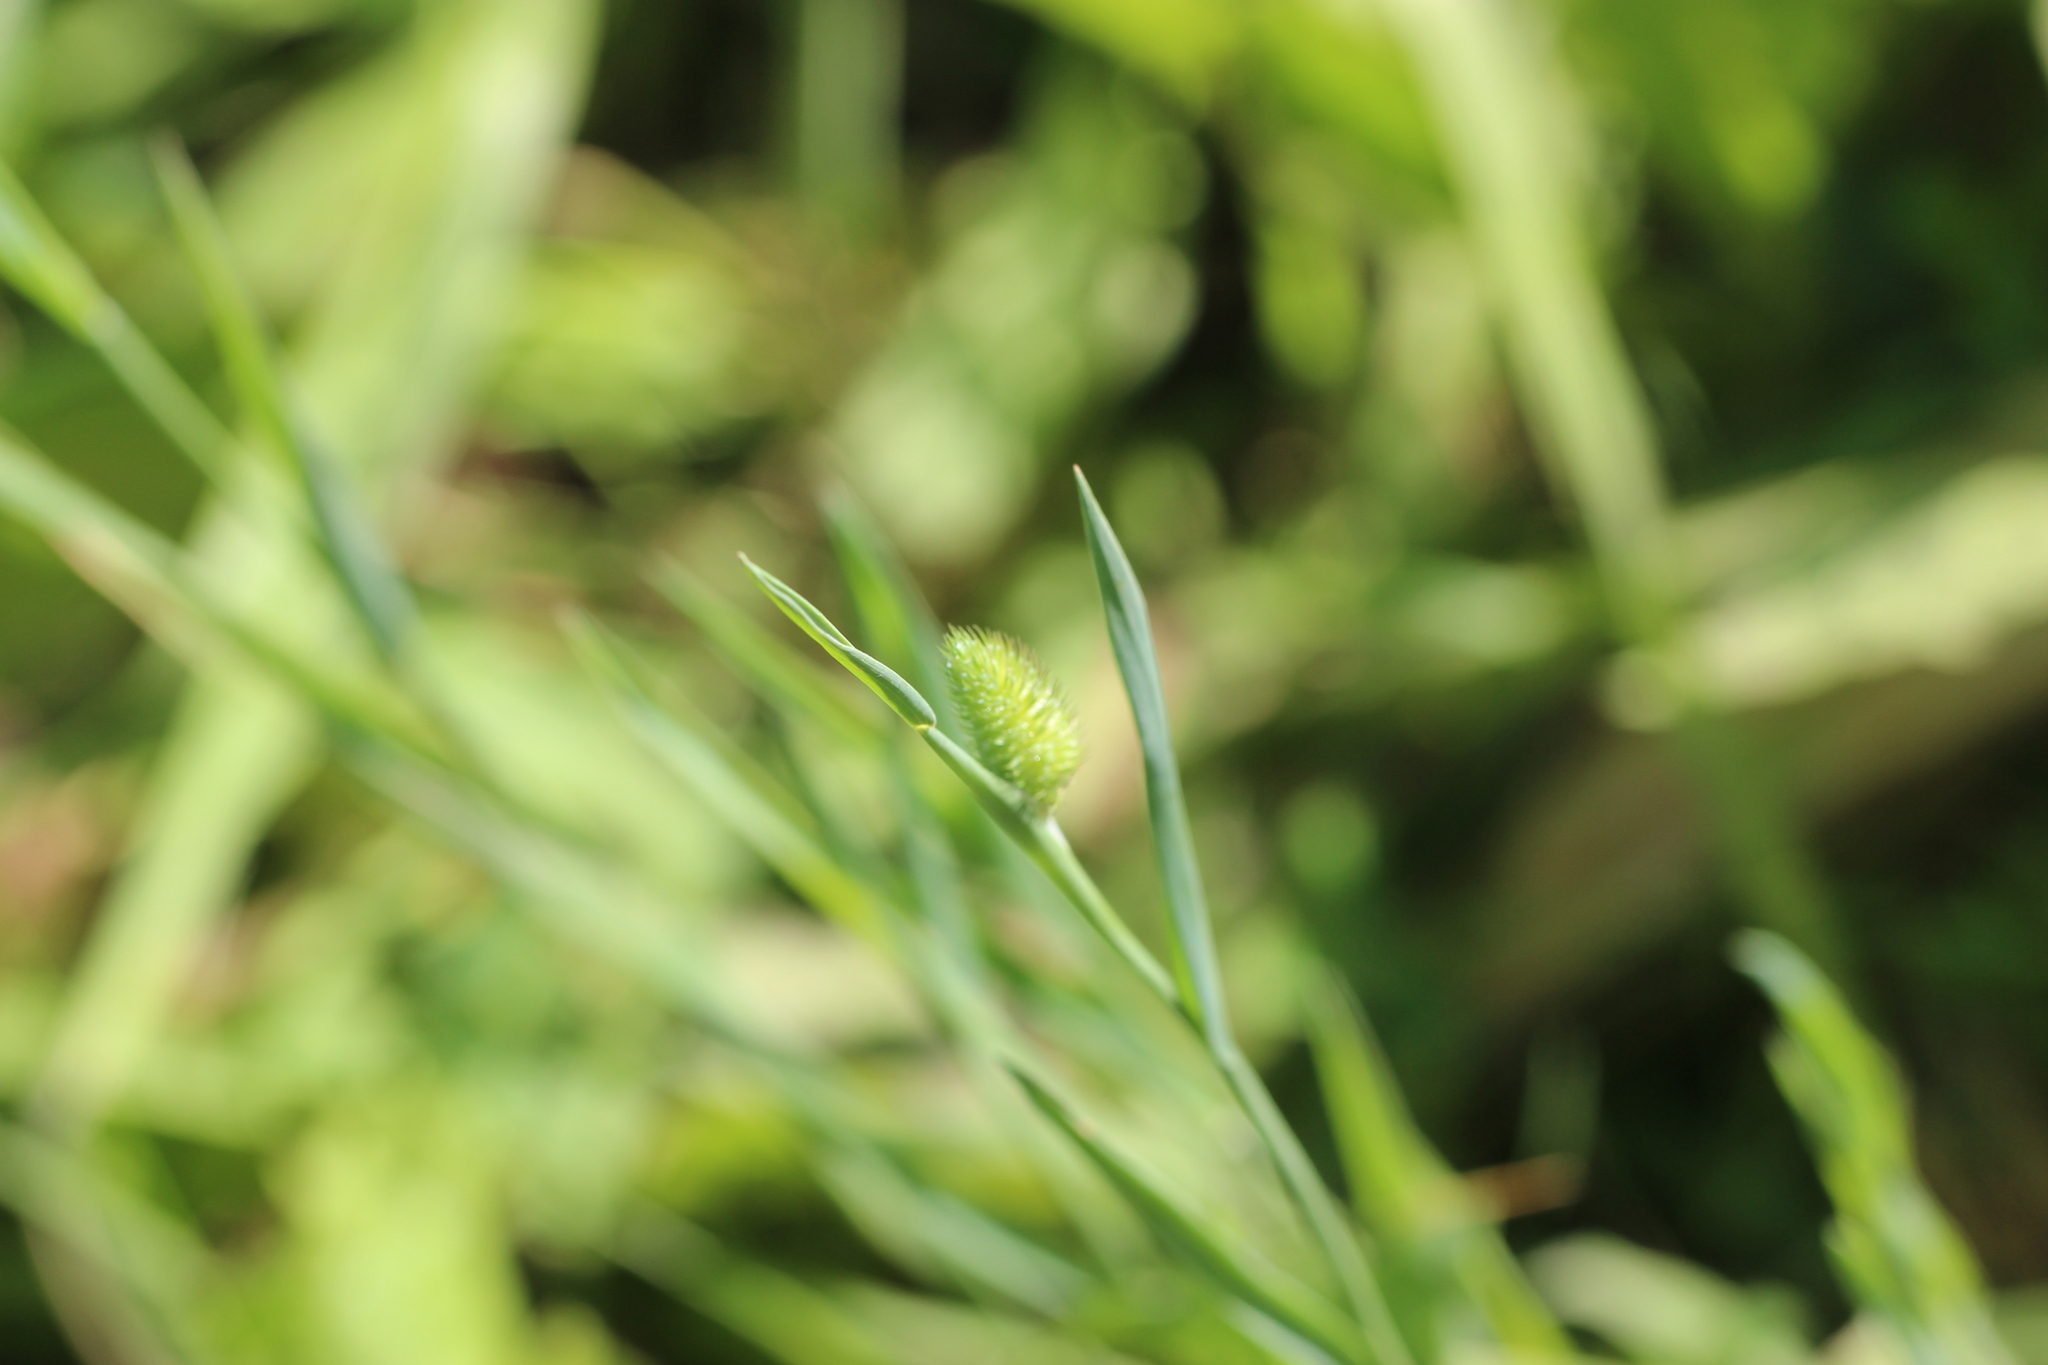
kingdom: Plantae
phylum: Tracheophyta
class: Liliopsida
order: Poales
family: Poaceae
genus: Phleum
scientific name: Phleum pratense
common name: Timothy grass
